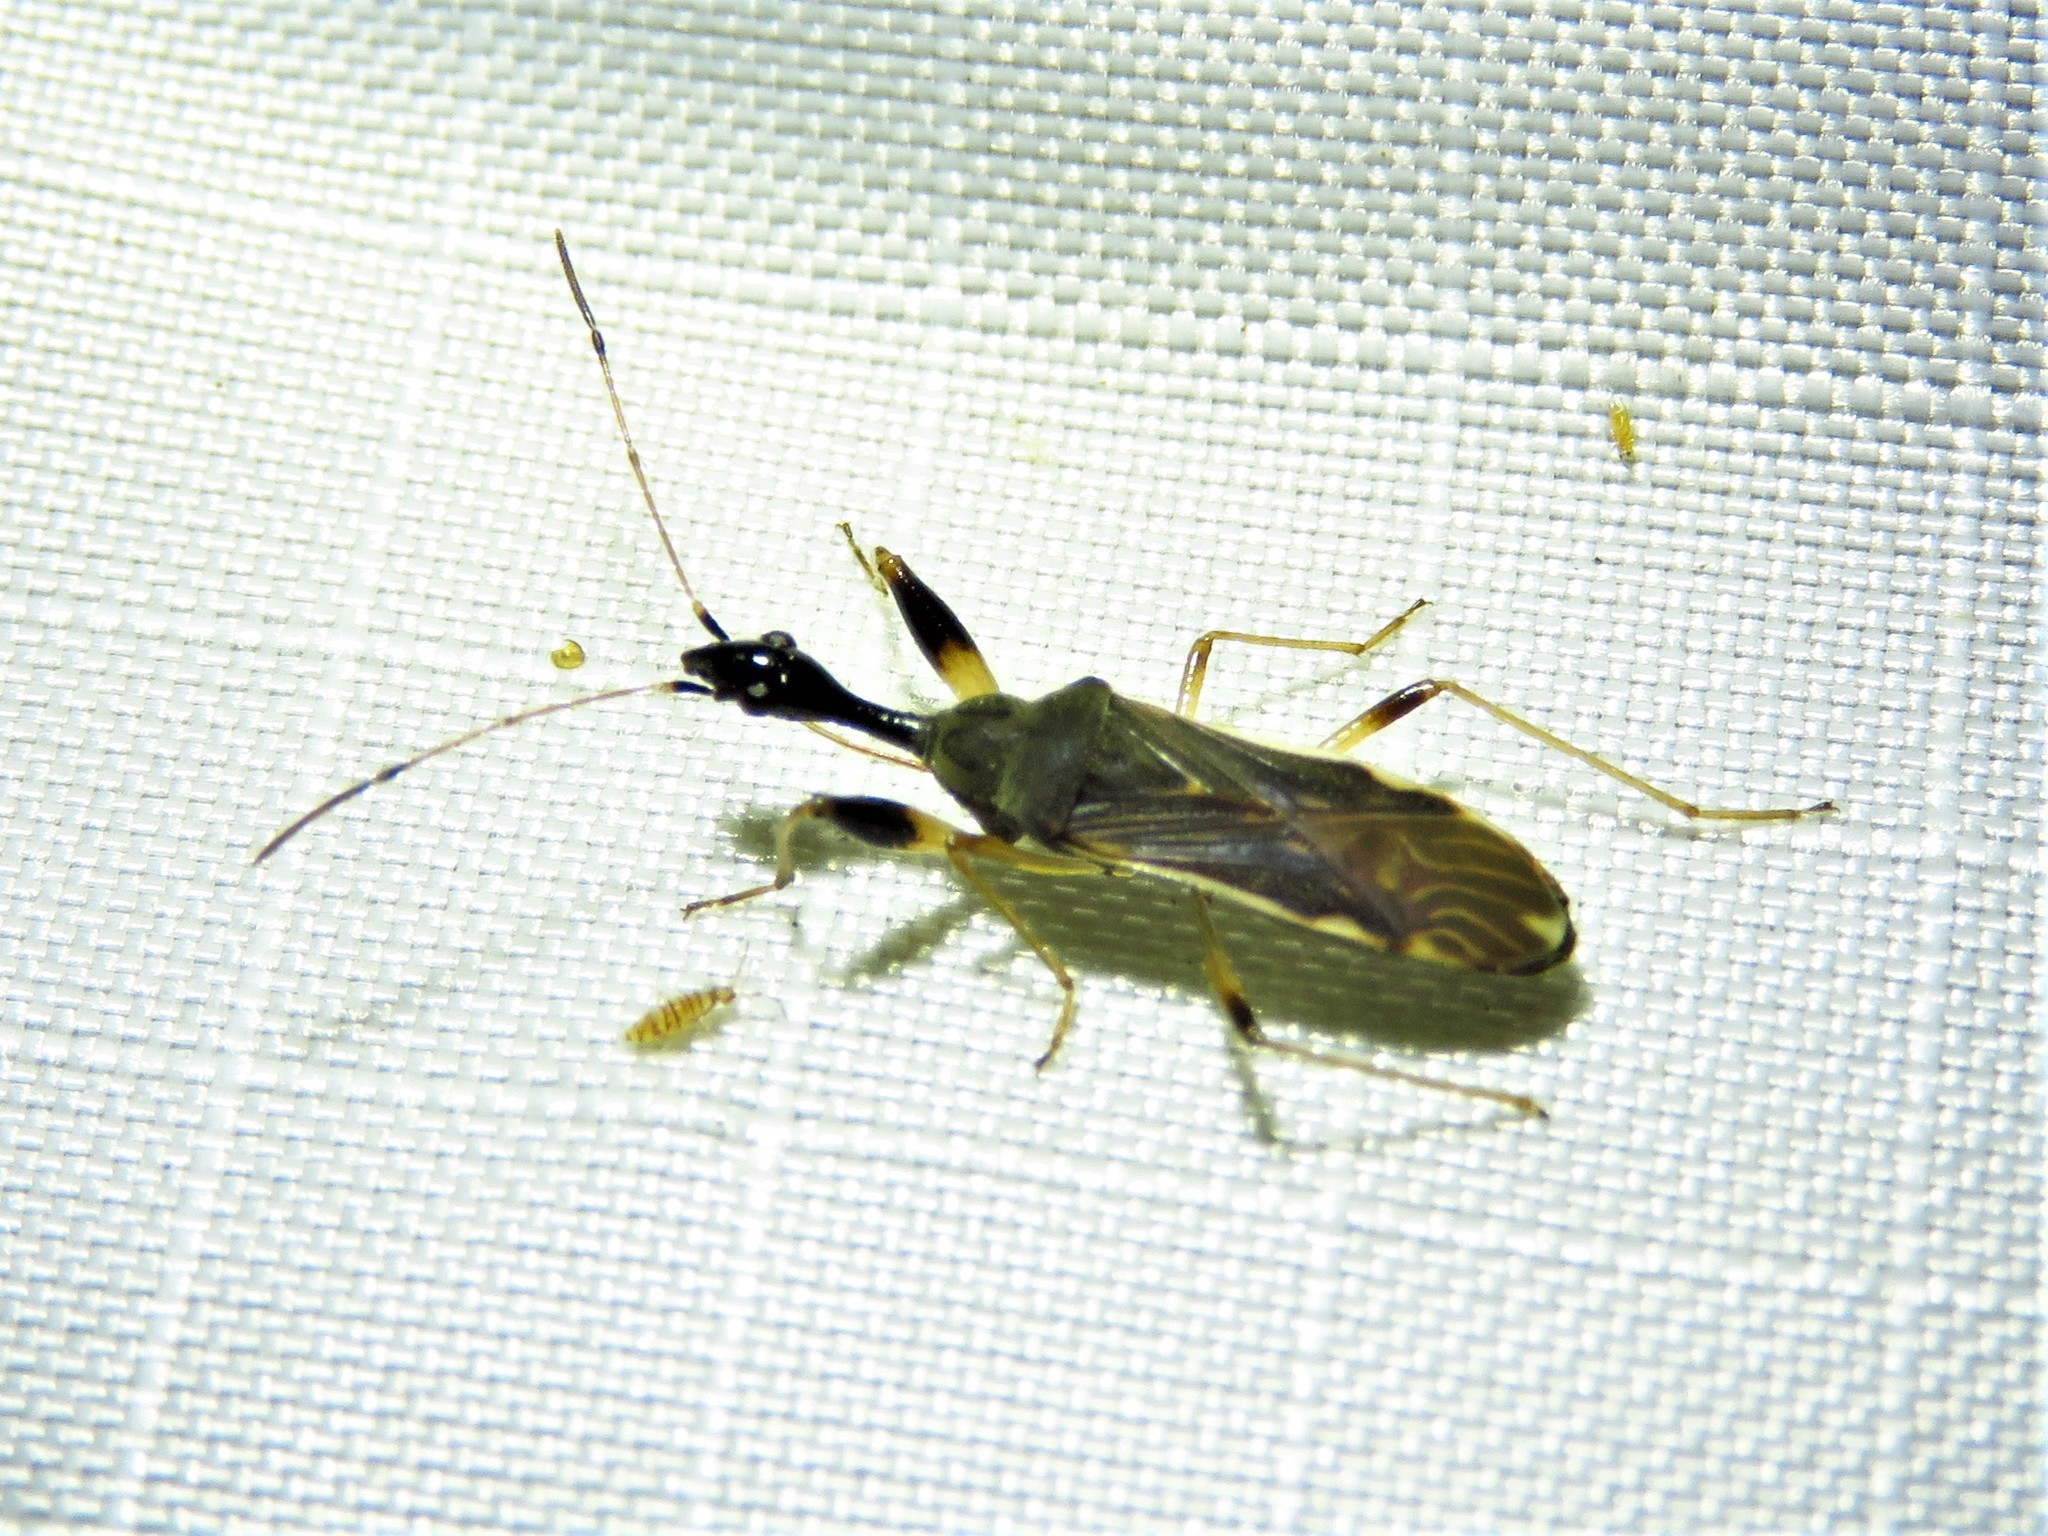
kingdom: Animalia
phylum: Arthropoda
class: Insecta
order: Hemiptera
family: Rhyparochromidae
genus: Myodocha
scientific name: Myodocha serripes
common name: Long-necked seed bug
